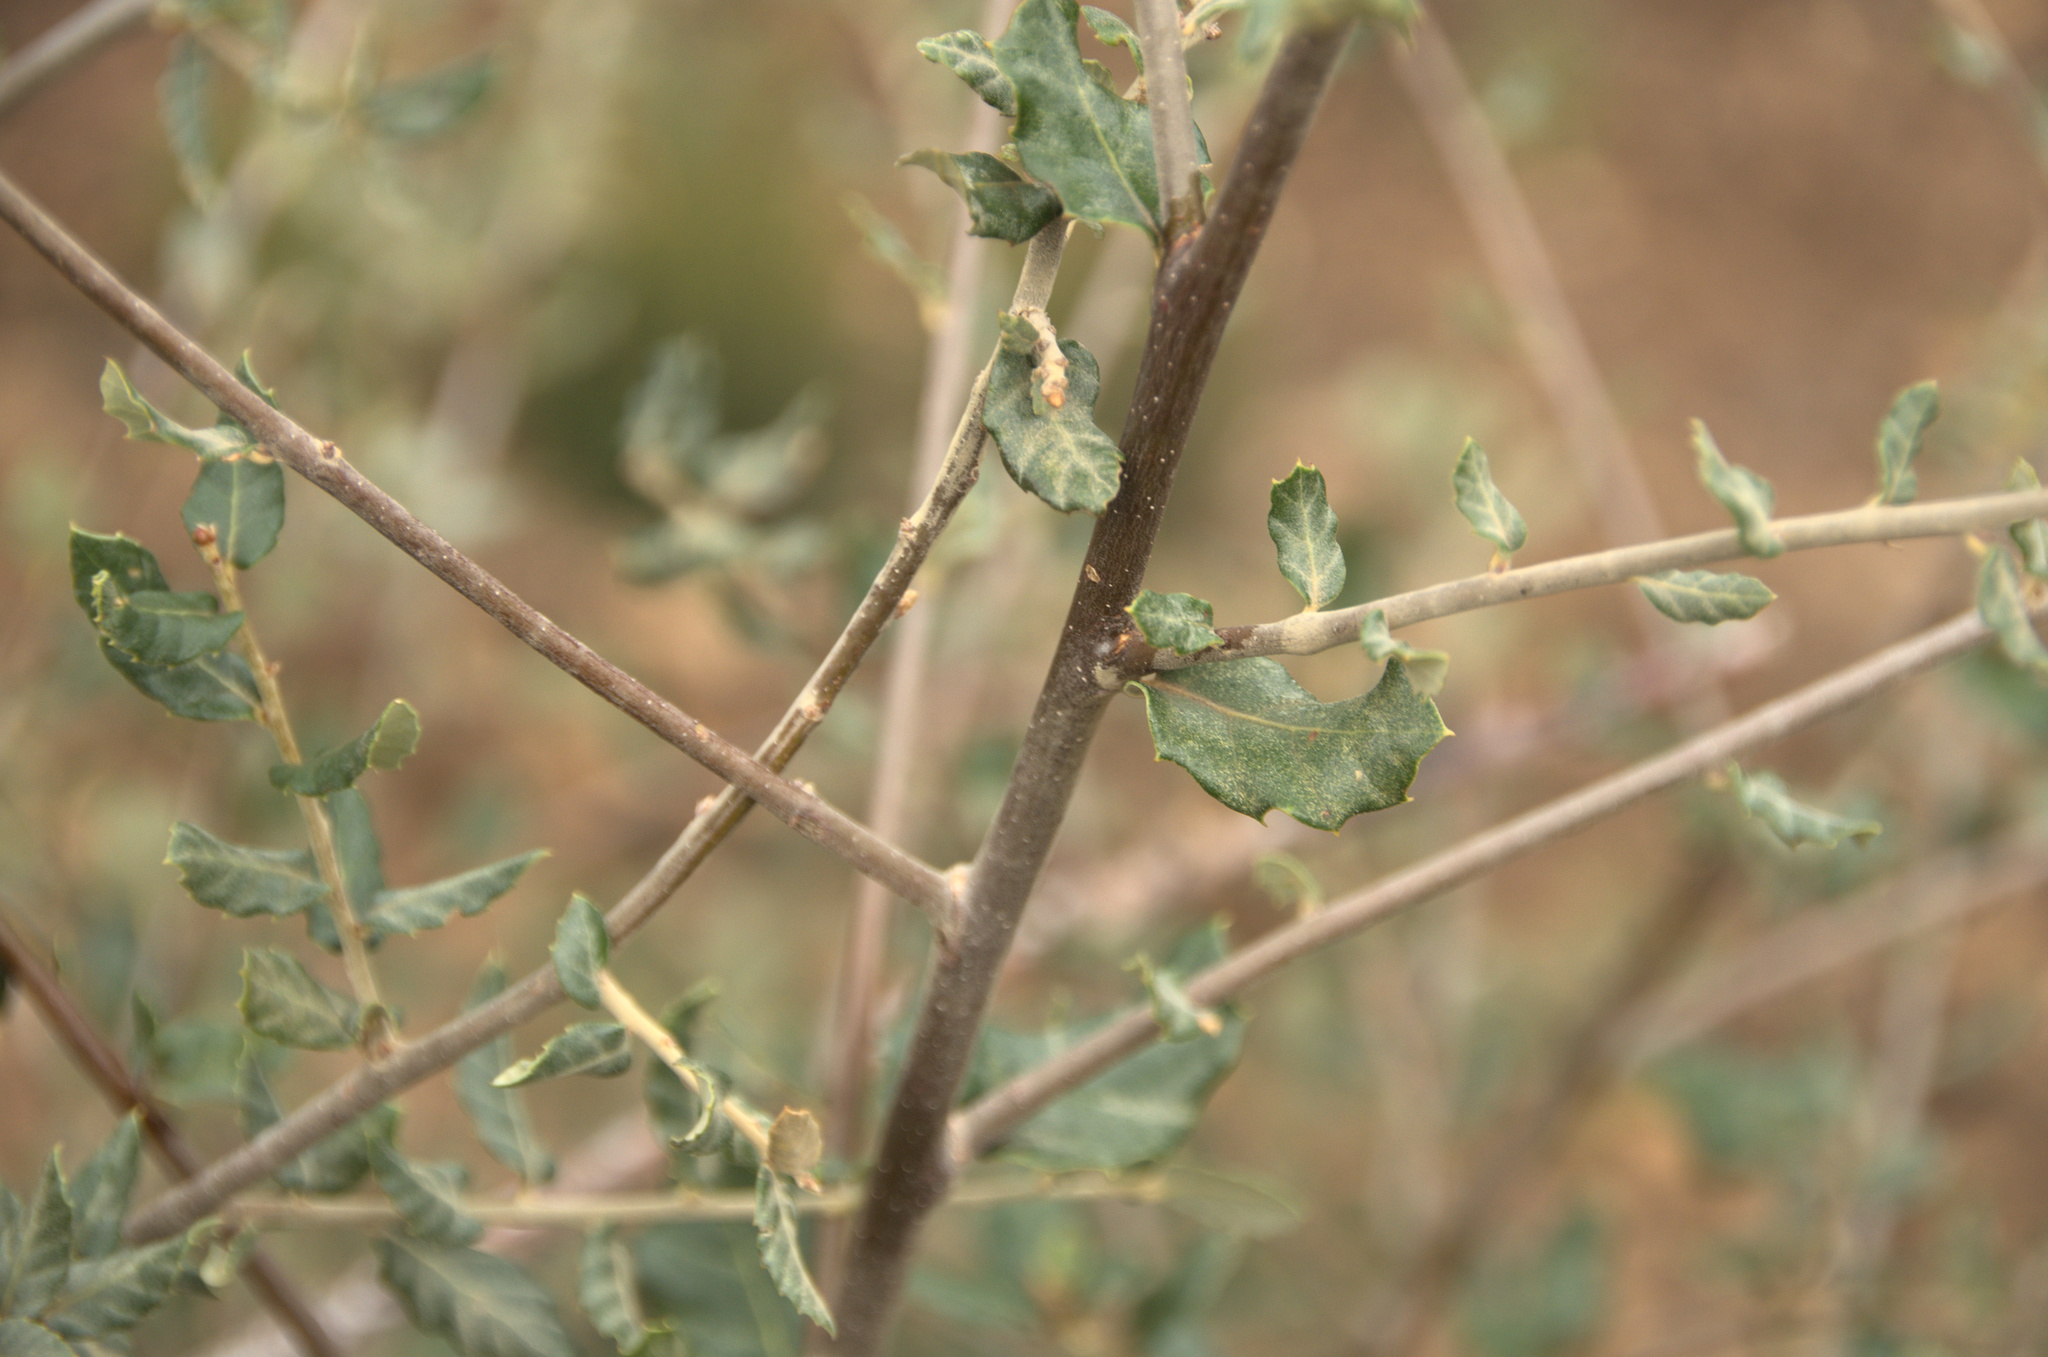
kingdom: Plantae
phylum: Tracheophyta
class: Magnoliopsida
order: Fagales
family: Fagaceae
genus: Quercus
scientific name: Quercus ilex
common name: Evergreen oak
